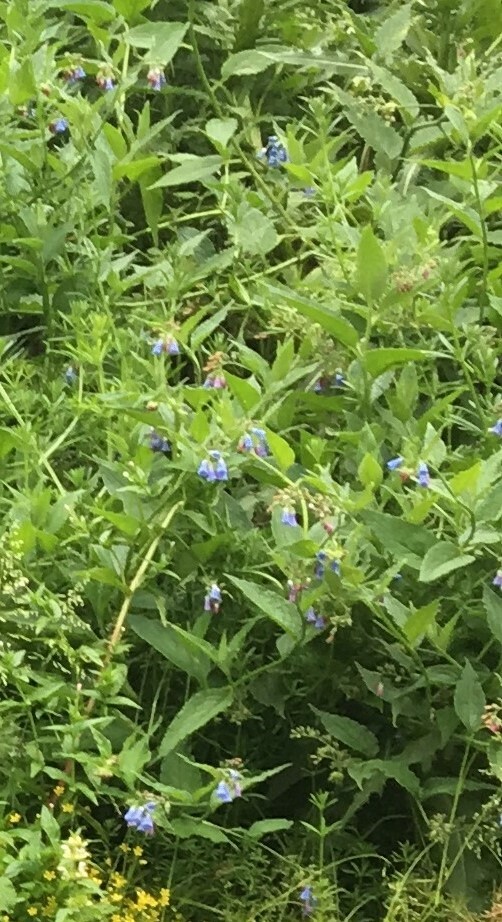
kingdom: Plantae
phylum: Tracheophyta
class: Magnoliopsida
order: Boraginales
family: Boraginaceae
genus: Symphytum
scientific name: Symphytum
